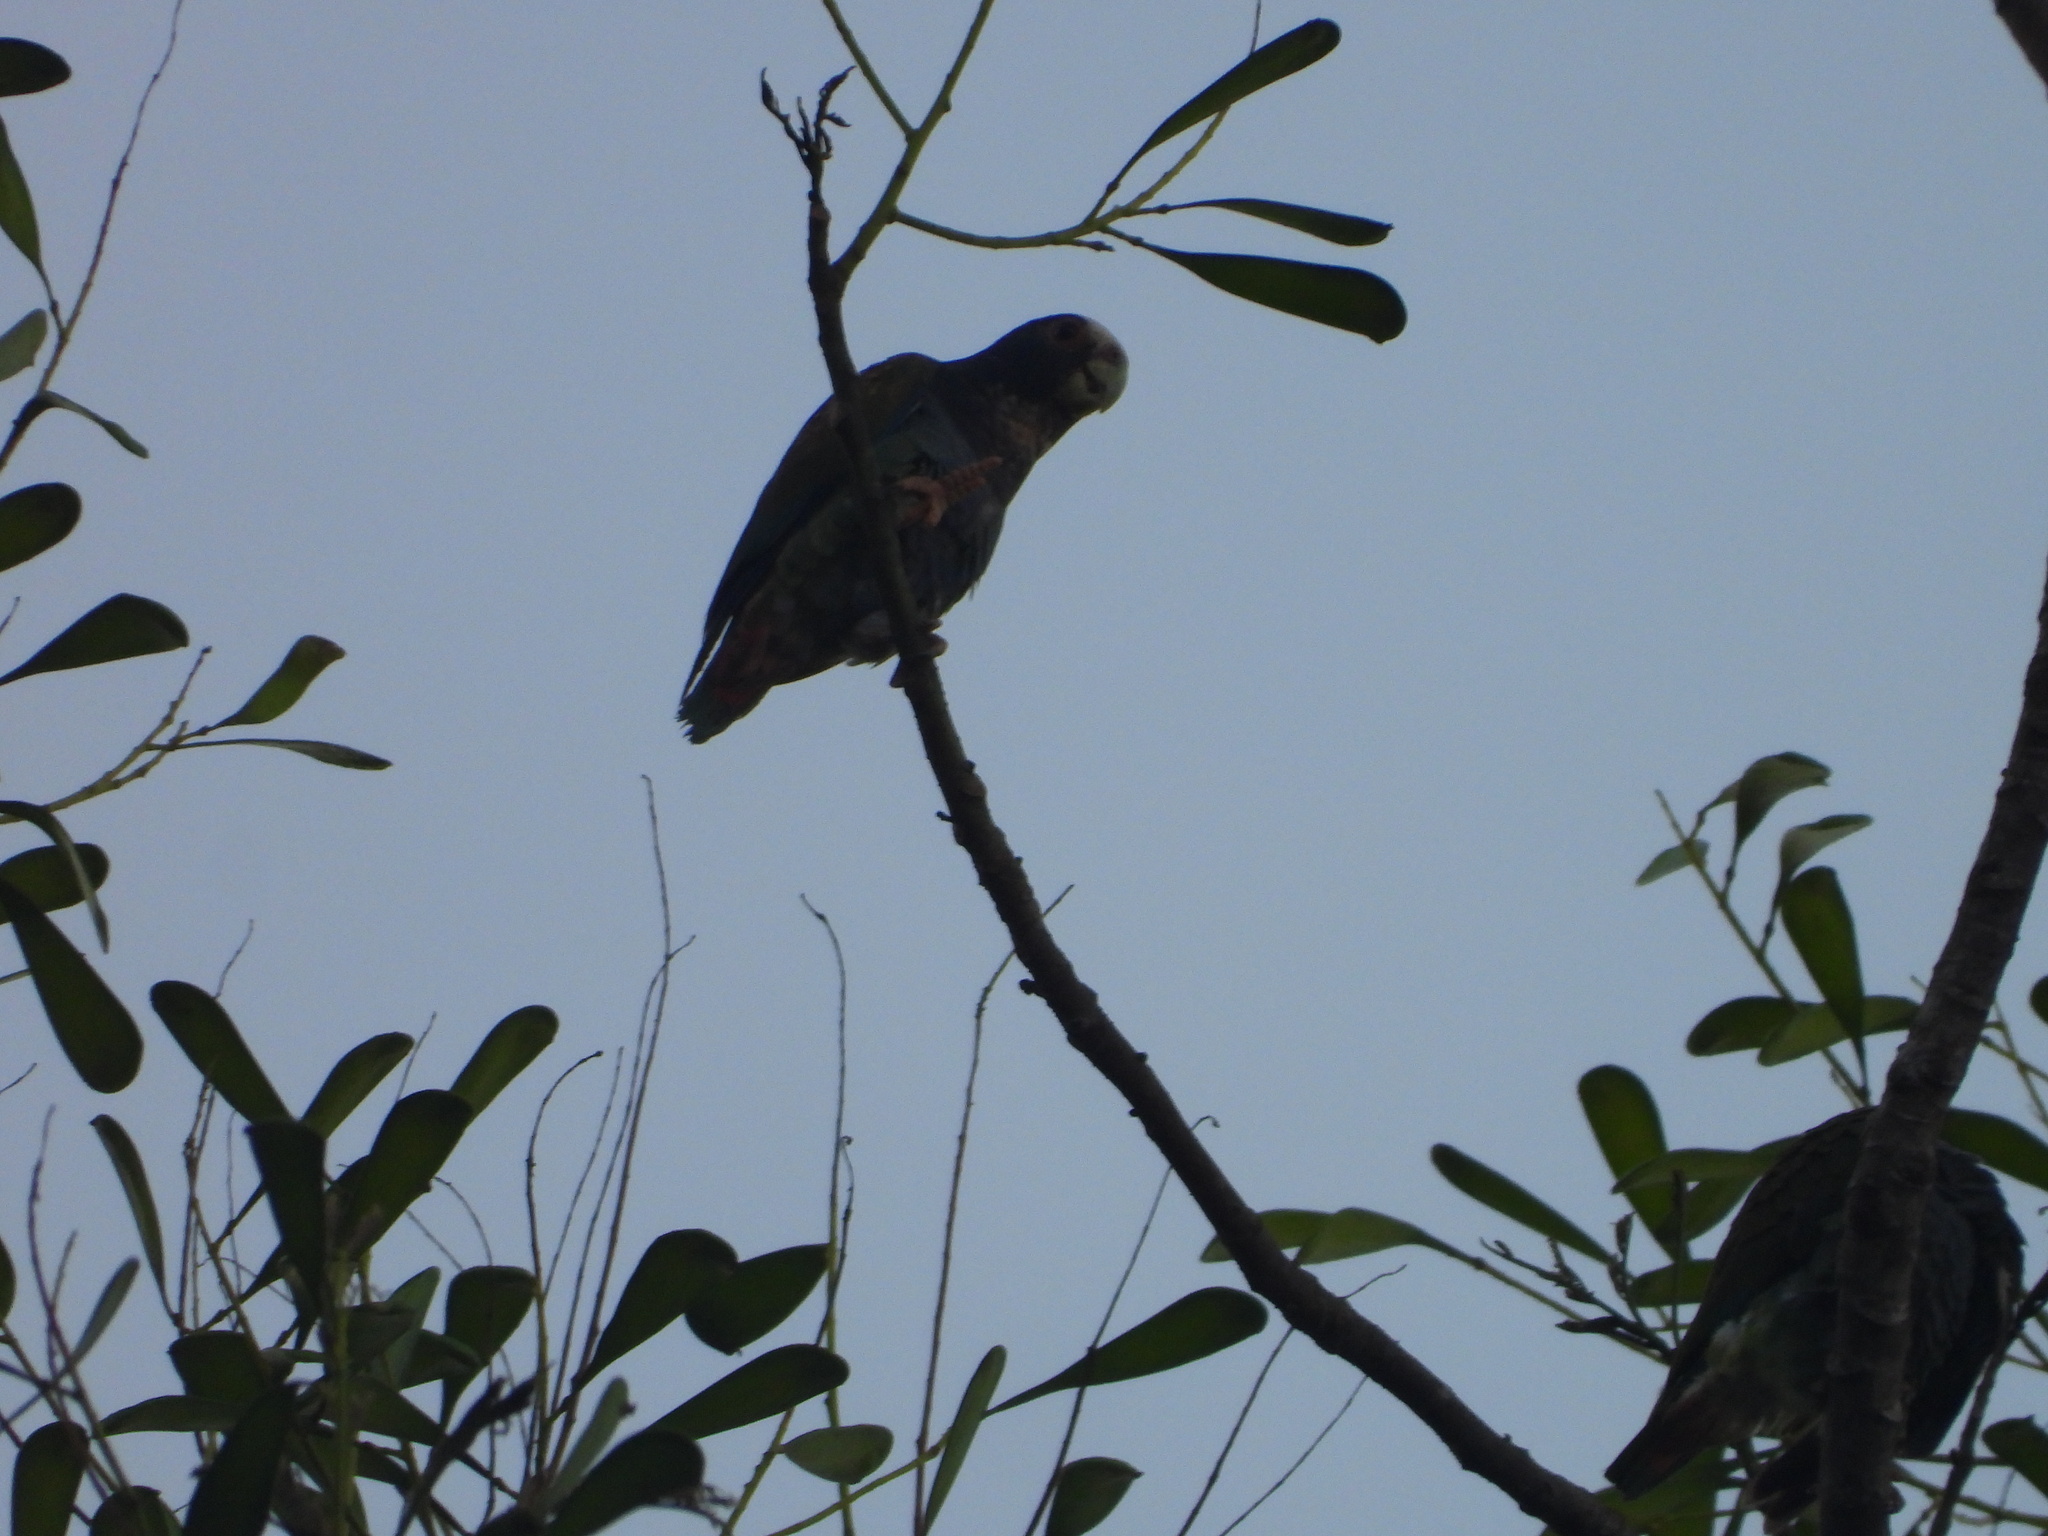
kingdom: Animalia
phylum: Chordata
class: Aves
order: Psittaciformes
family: Psittacidae
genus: Pionus
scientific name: Pionus senilis
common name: White-crowned parrot
